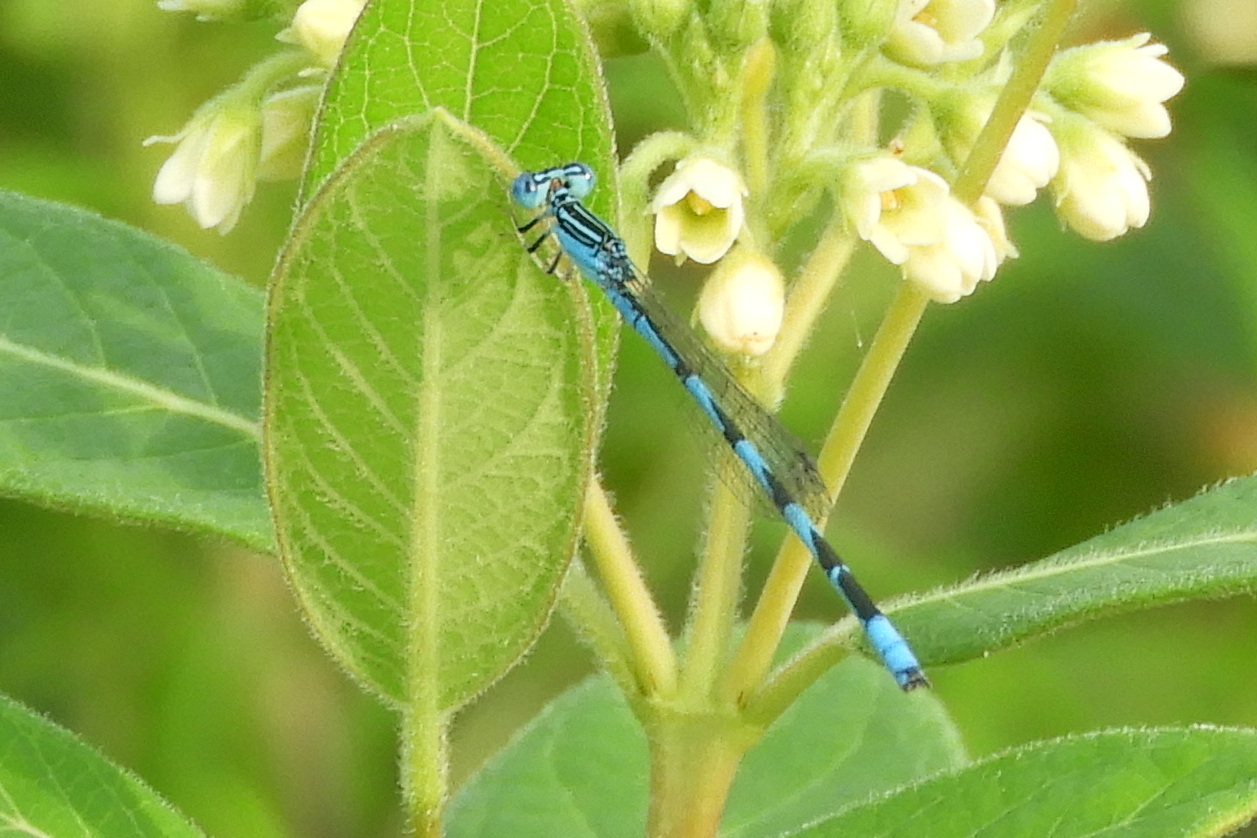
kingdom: Animalia
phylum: Arthropoda
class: Insecta
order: Odonata
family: Coenagrionidae
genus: Enallagma
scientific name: Enallagma basidens
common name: Double-striped bluet
